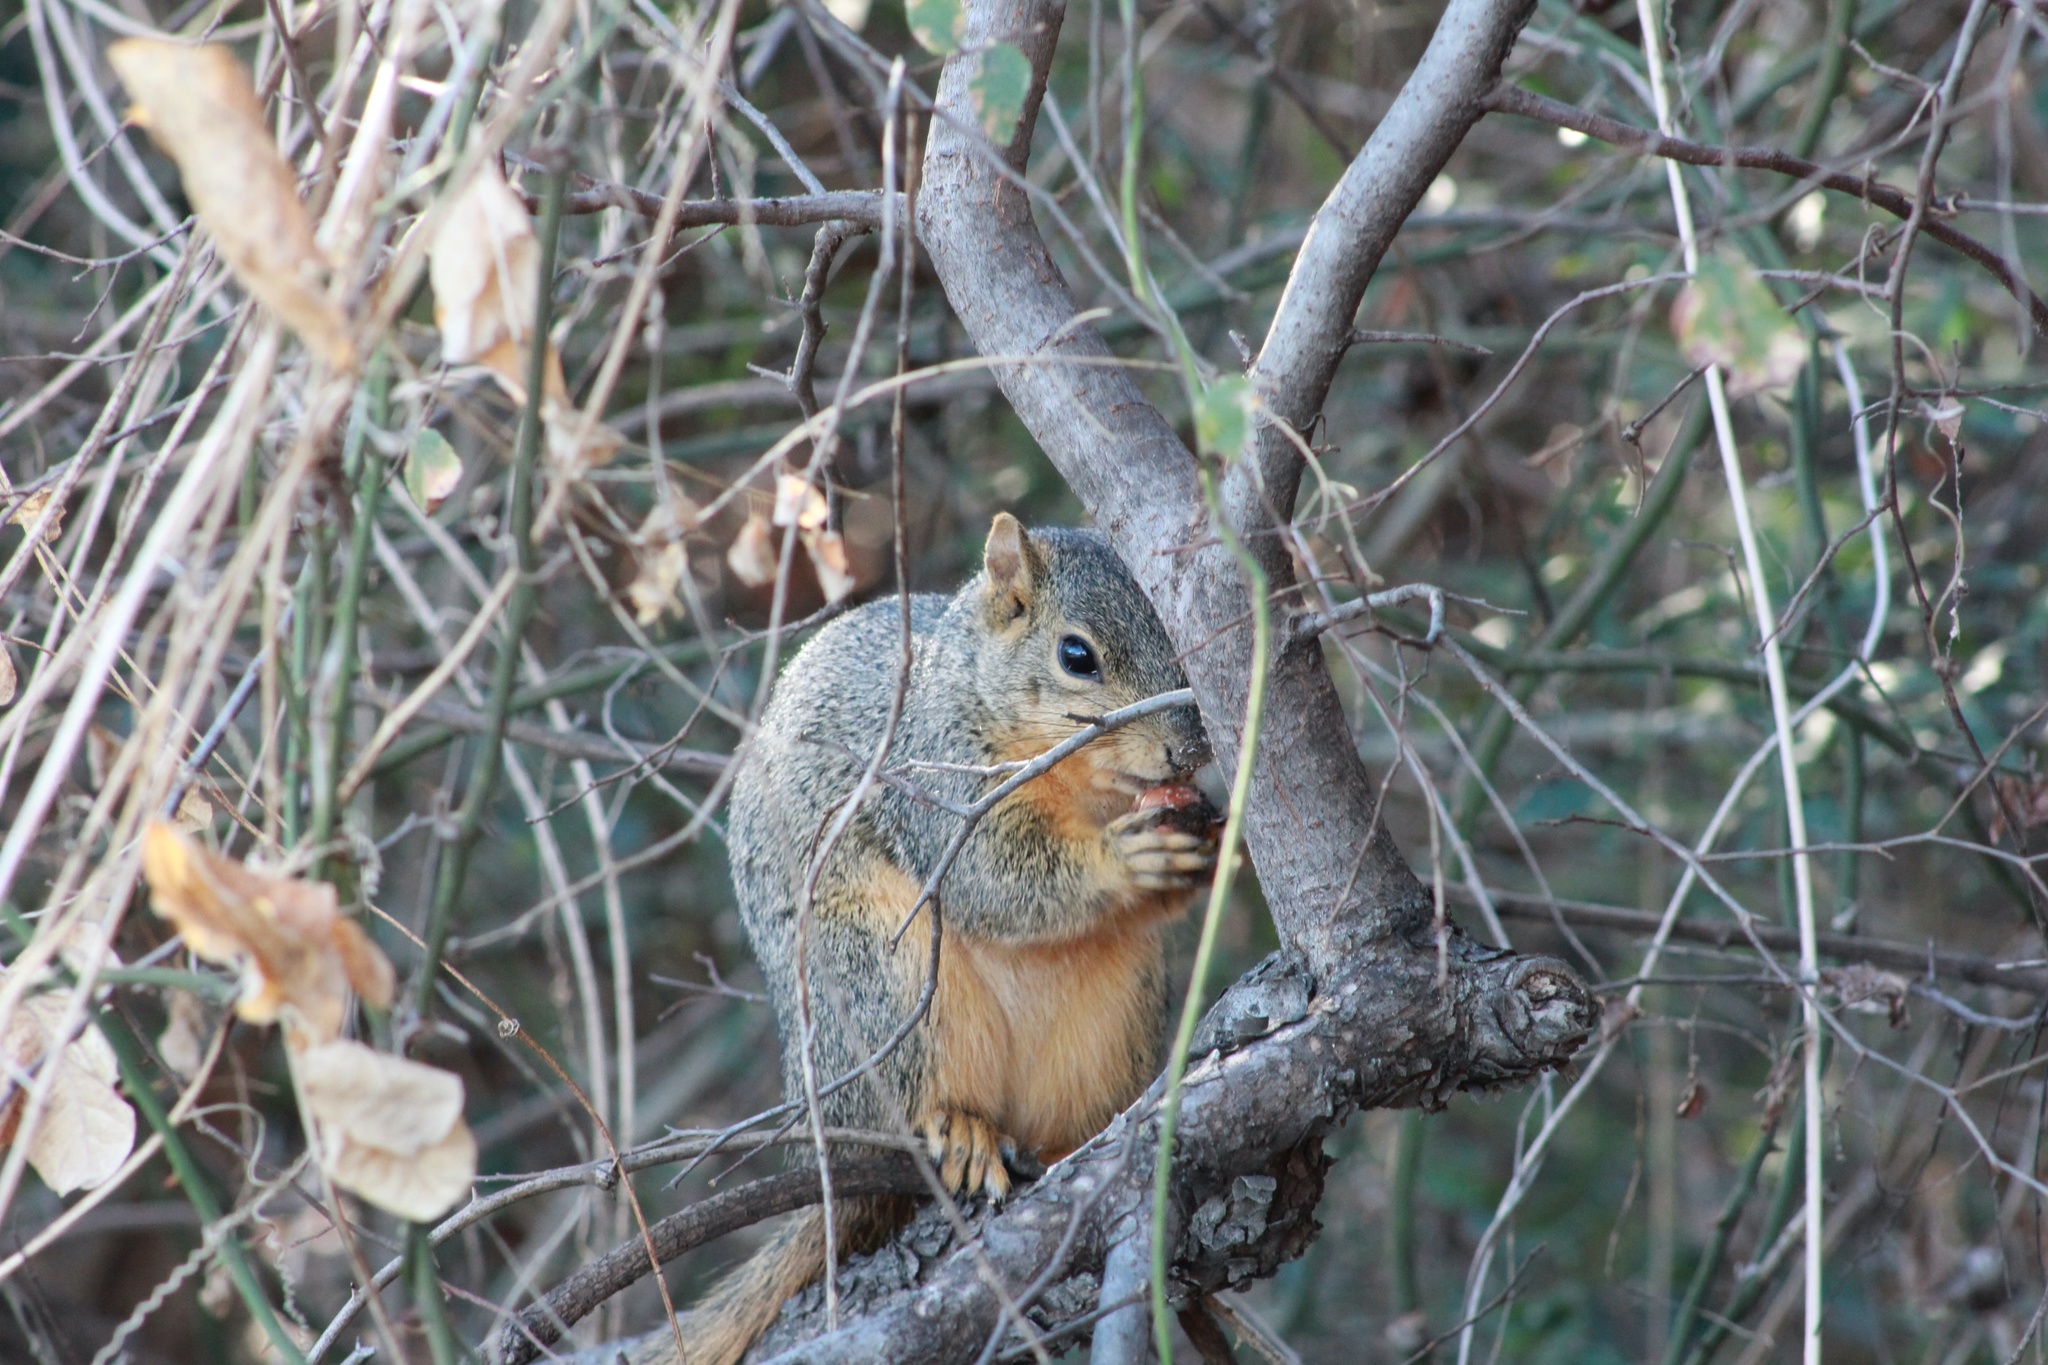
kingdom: Animalia
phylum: Chordata
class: Mammalia
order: Rodentia
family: Sciuridae
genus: Sciurus
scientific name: Sciurus niger
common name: Fox squirrel
